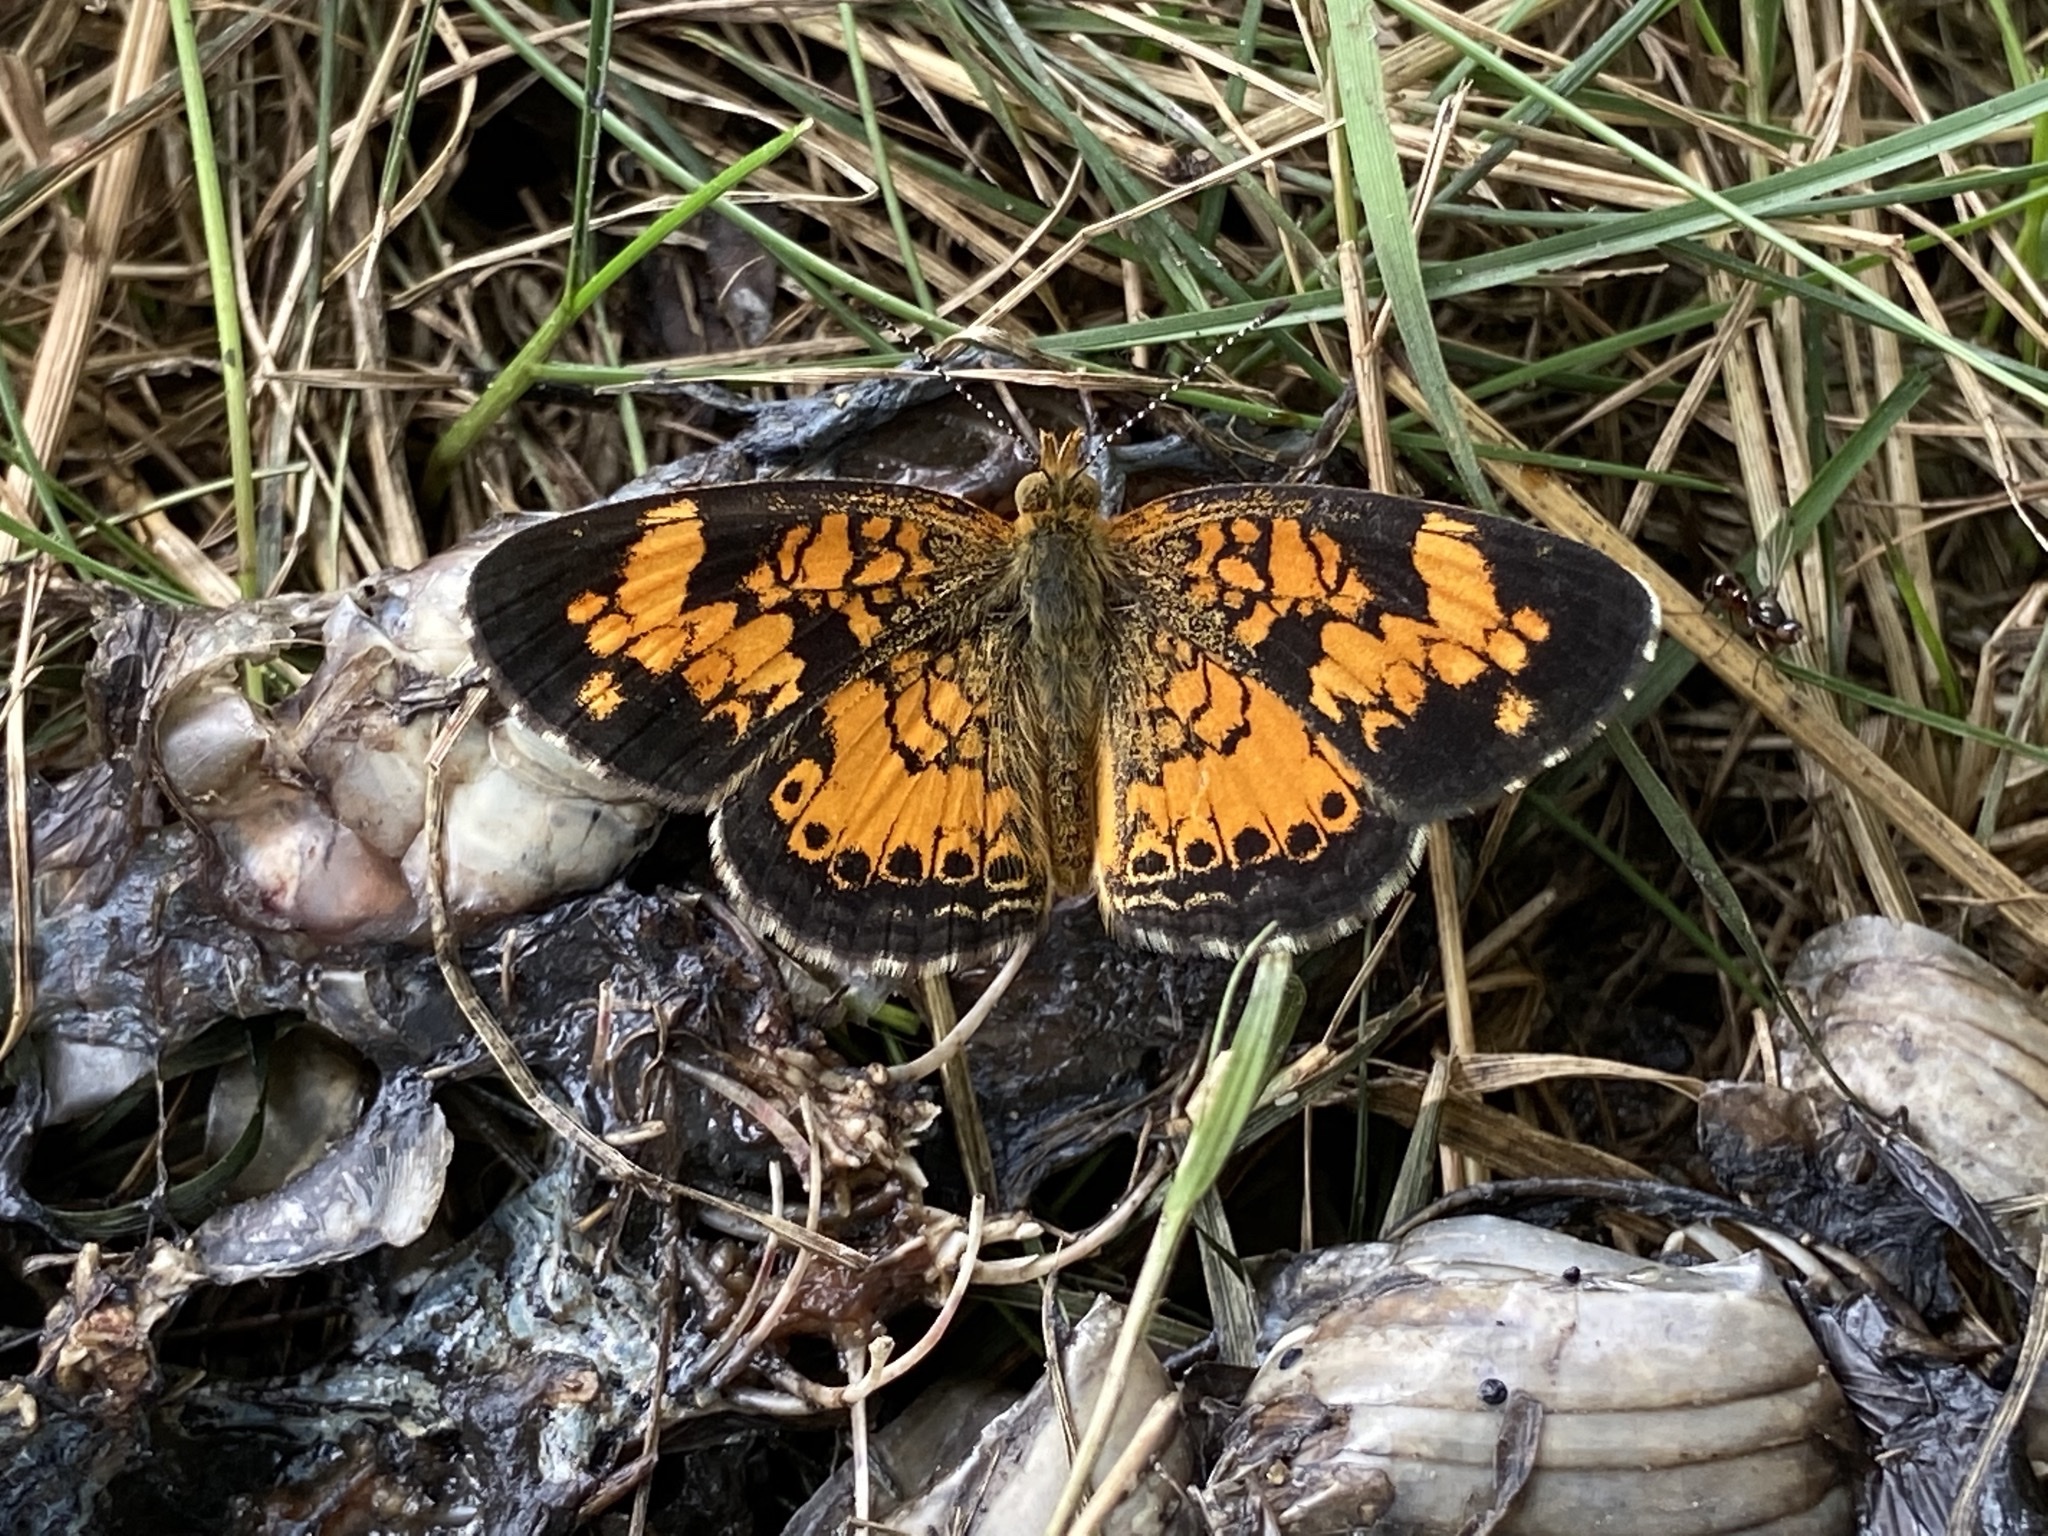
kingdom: Animalia
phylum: Arthropoda
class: Insecta
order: Lepidoptera
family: Nymphalidae
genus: Phyciodes
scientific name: Phyciodes tharos
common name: Pearl crescent
